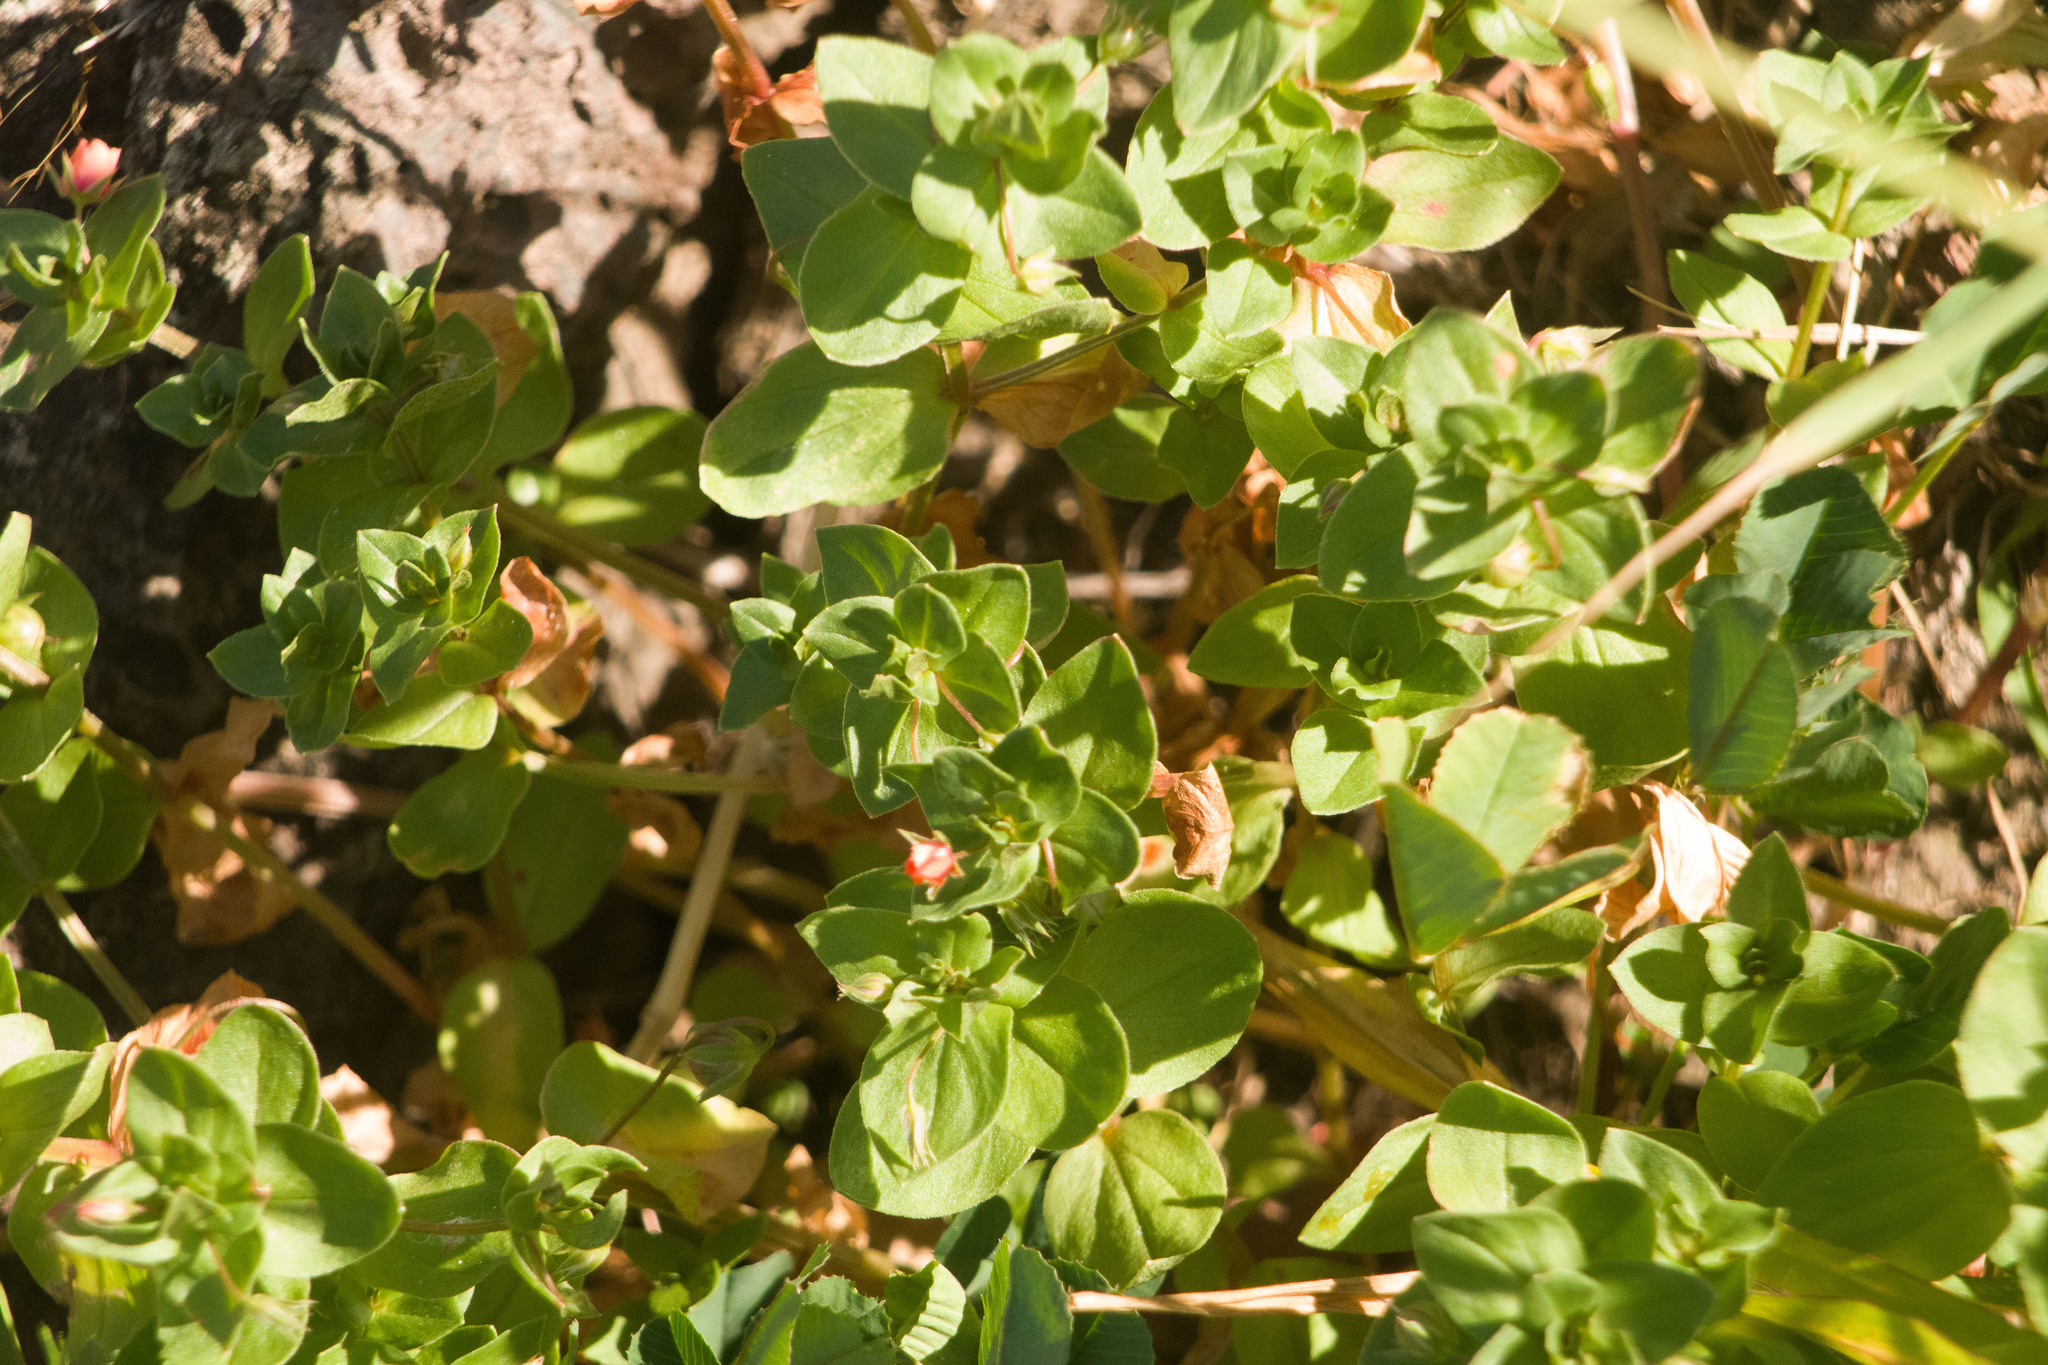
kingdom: Plantae
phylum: Tracheophyta
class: Magnoliopsida
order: Ericales
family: Primulaceae
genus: Lysimachia
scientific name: Lysimachia arvensis
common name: Scarlet pimpernel
